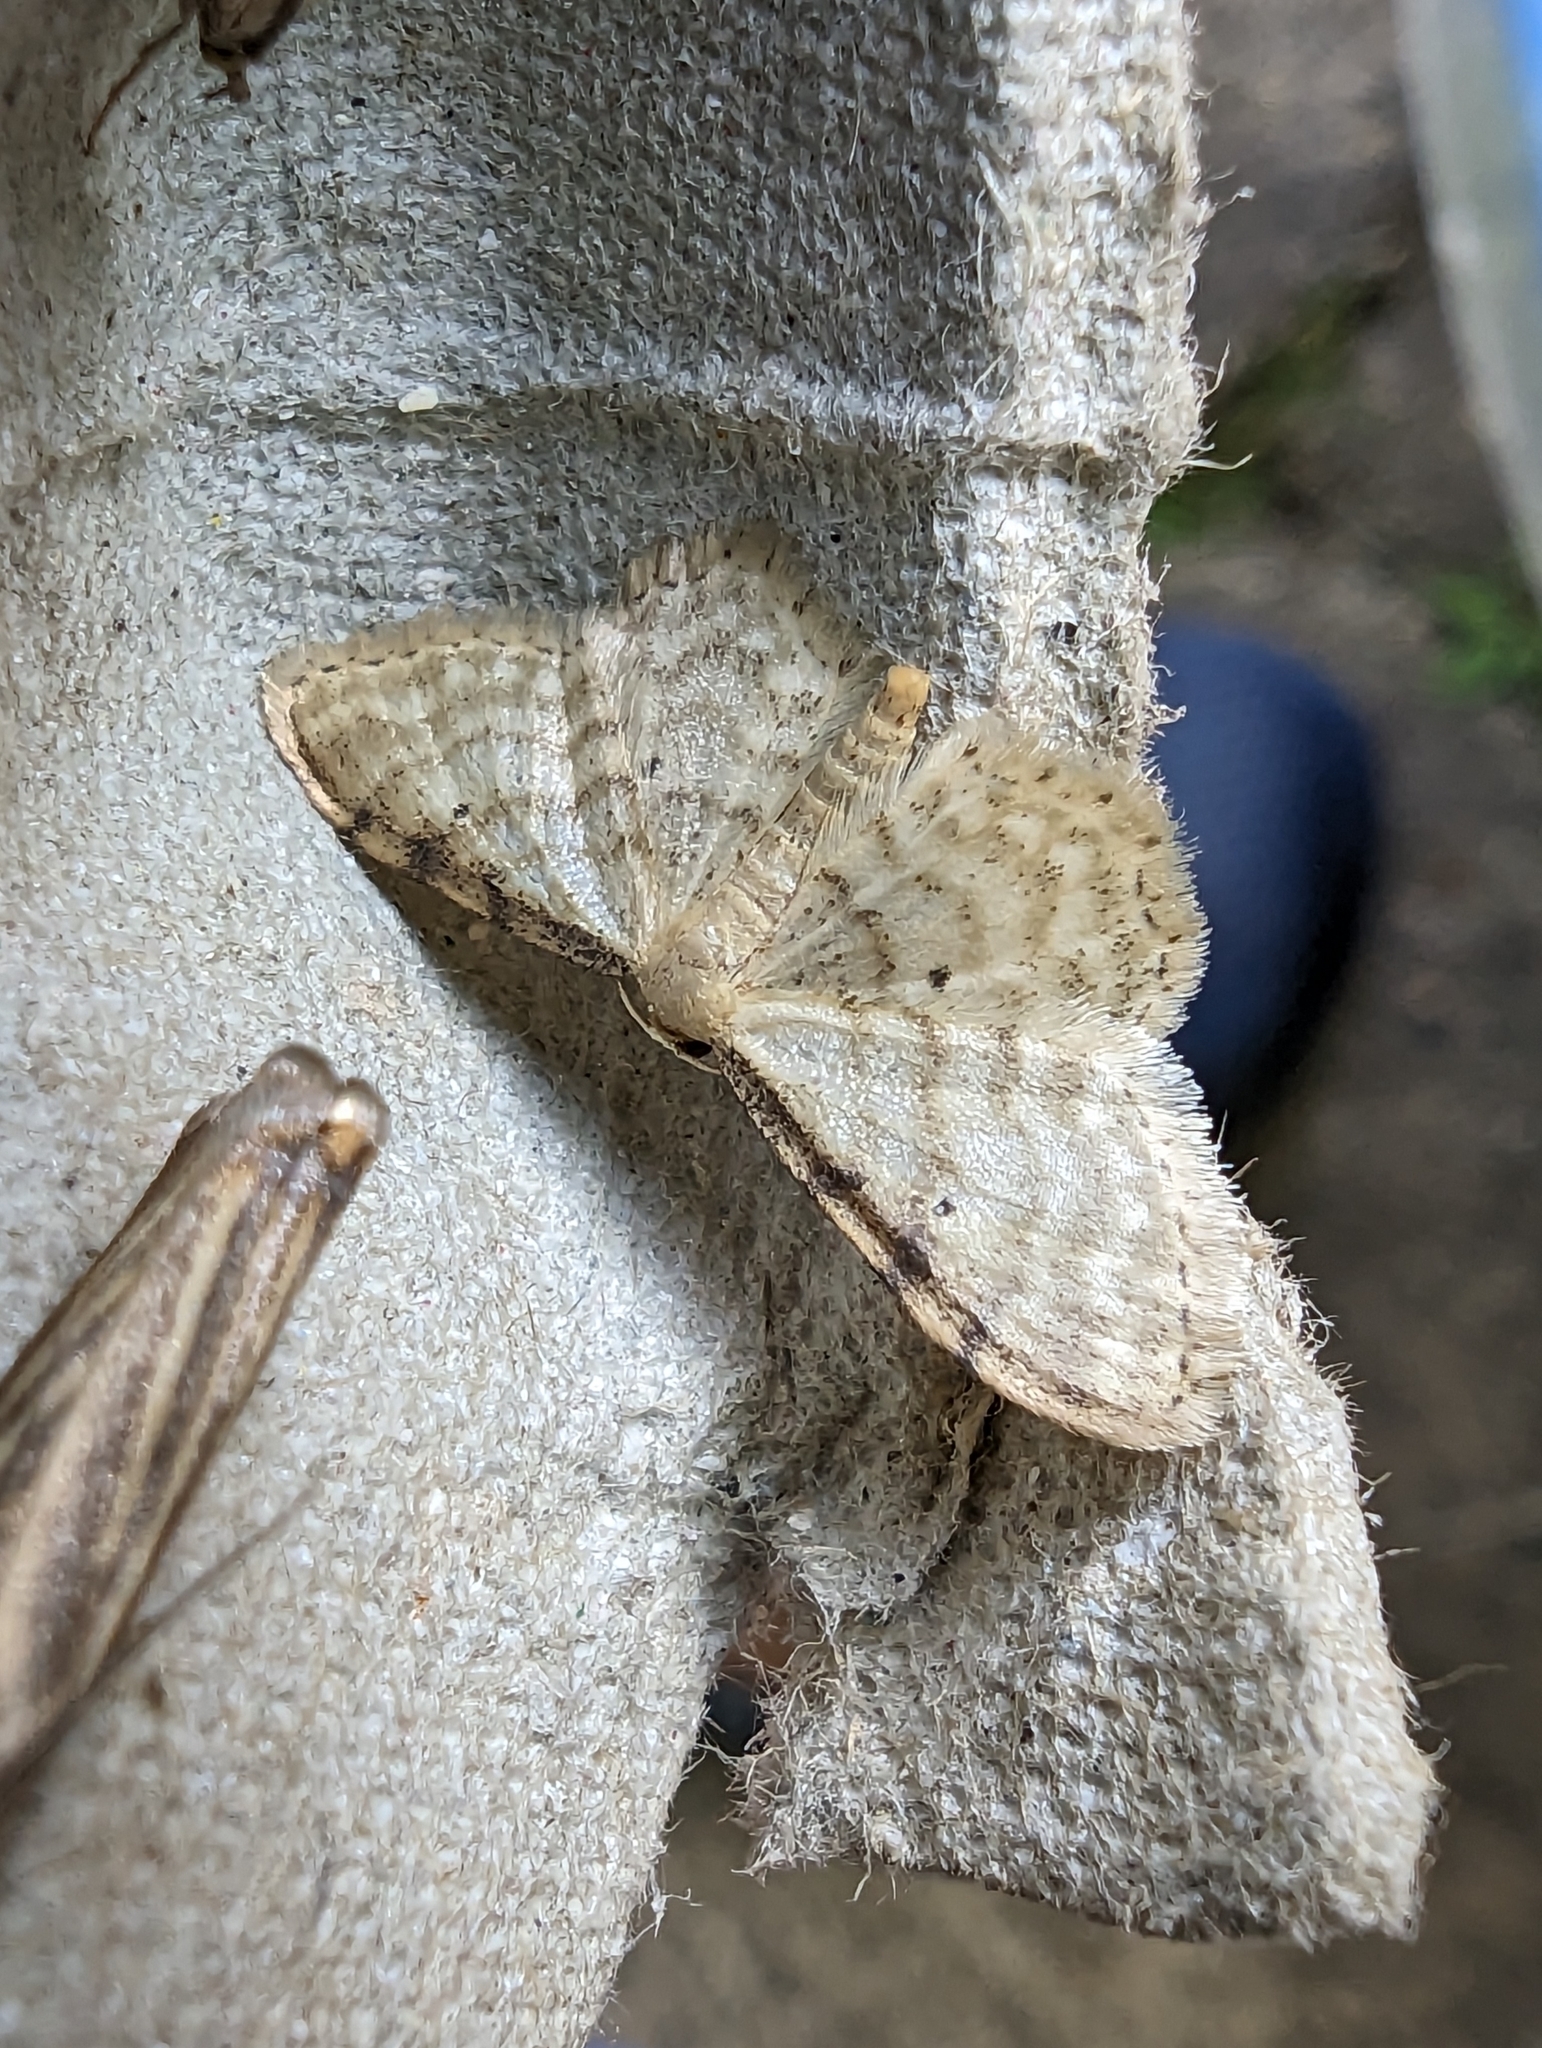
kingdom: Animalia
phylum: Arthropoda
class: Insecta
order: Lepidoptera
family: Geometridae
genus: Idaea
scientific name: Idaea fuscovenosa
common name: Dwarf cream wave
